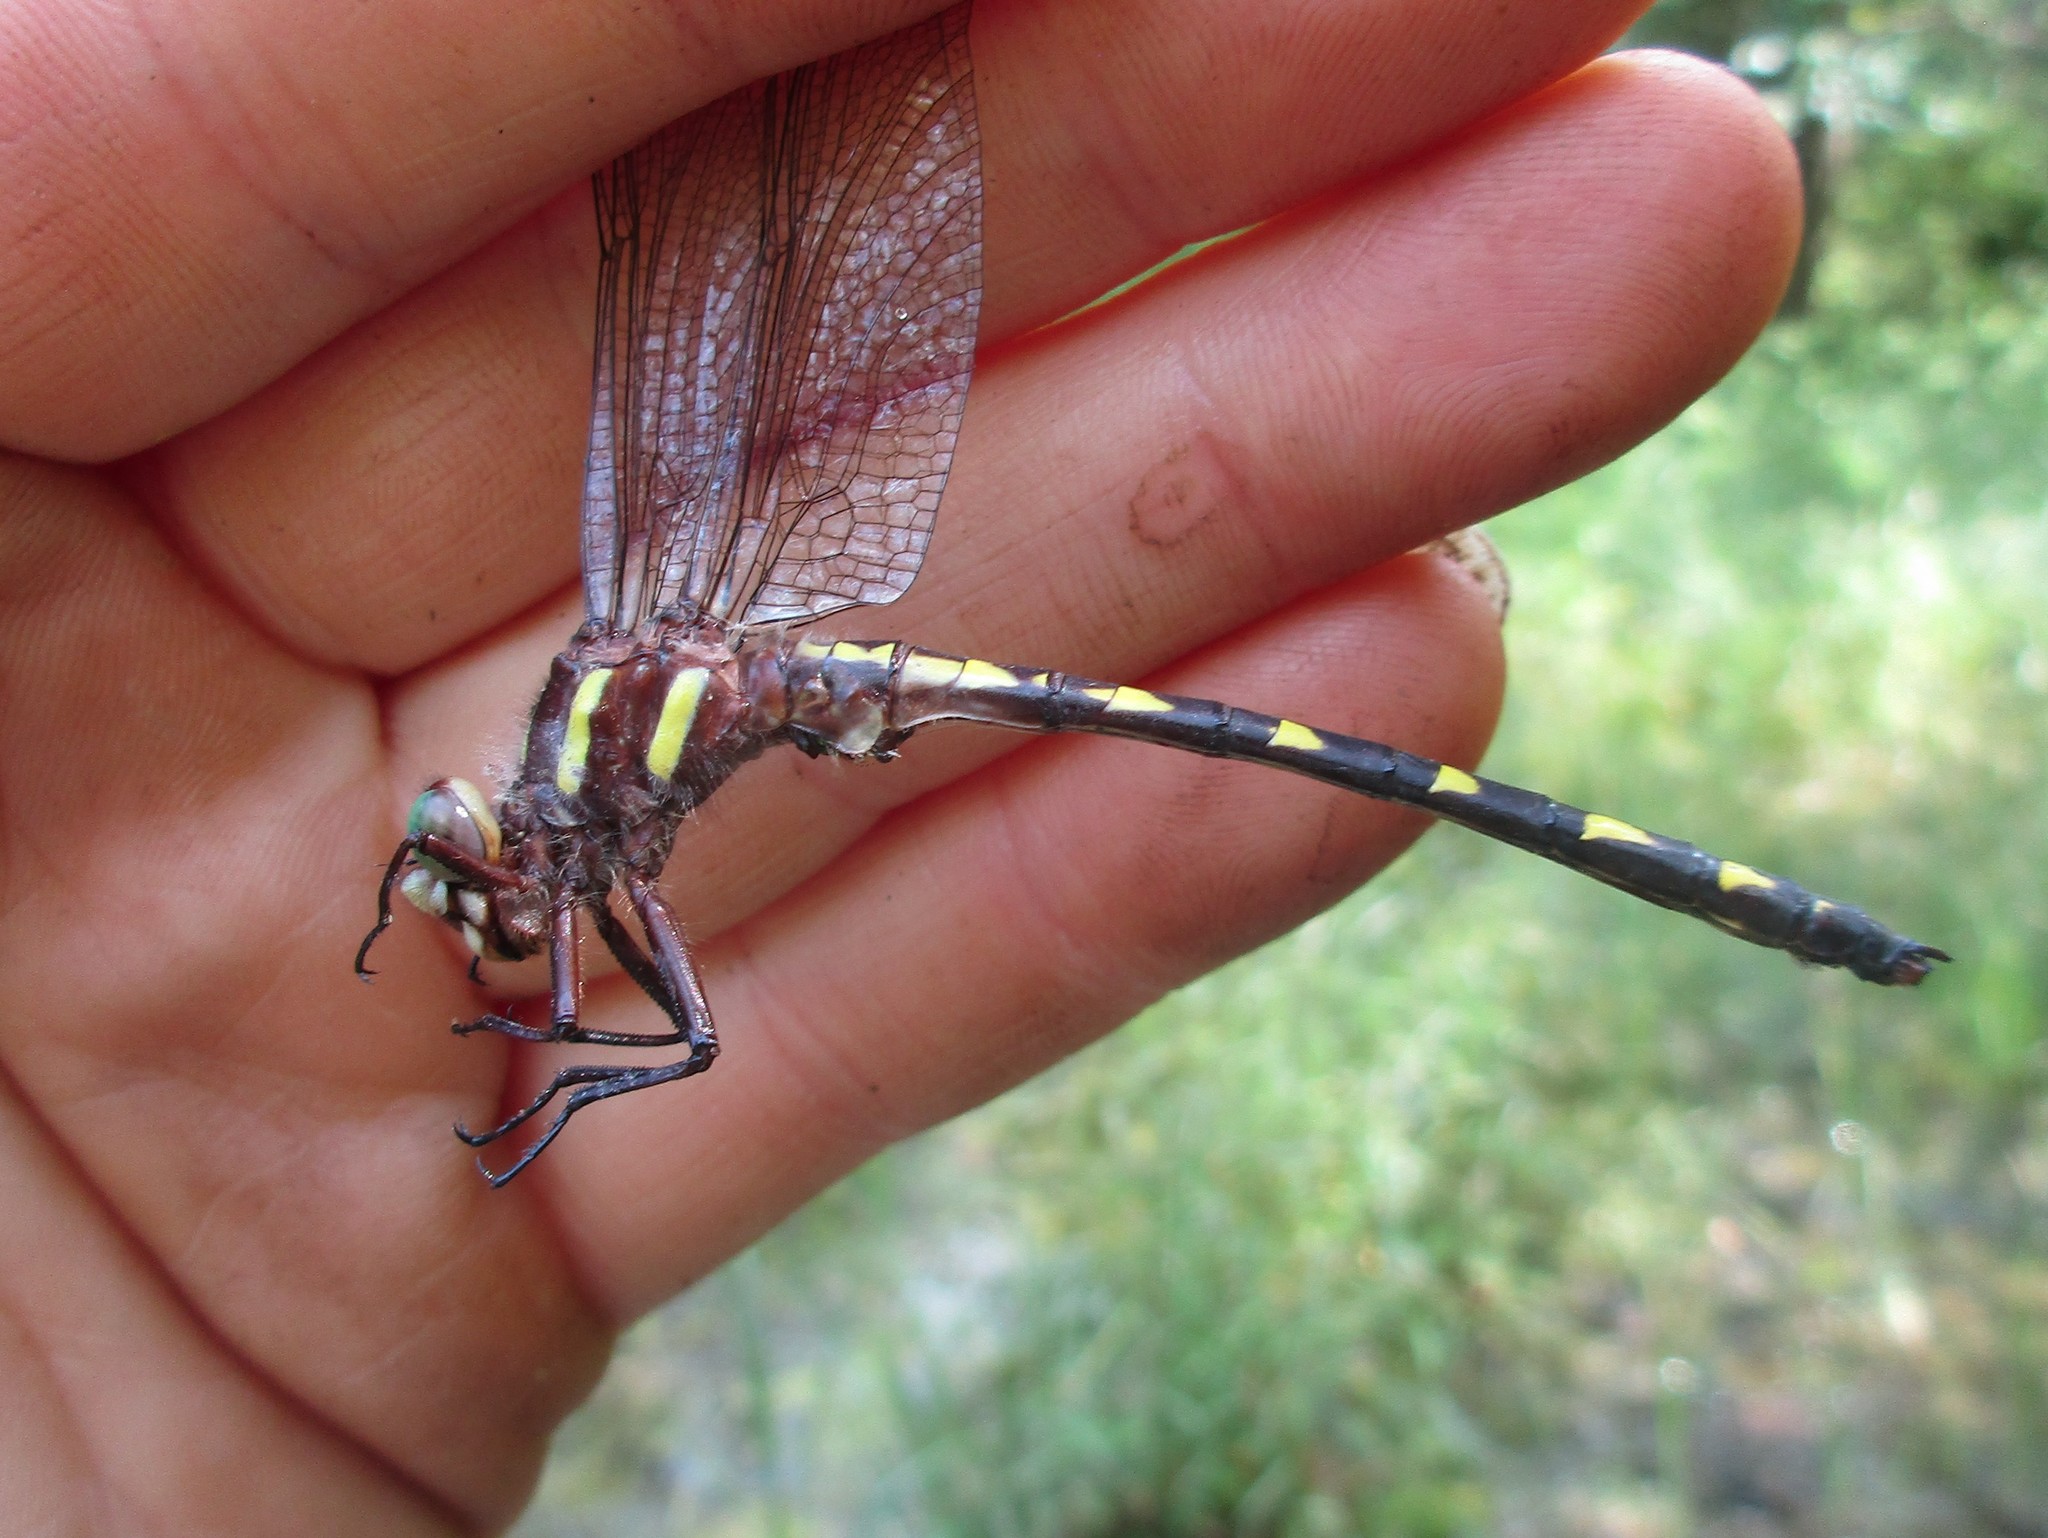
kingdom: Animalia
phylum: Arthropoda
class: Insecta
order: Odonata
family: Cordulegastridae
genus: Cordulegaster
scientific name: Cordulegaster bilineata
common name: Brown spiketail
